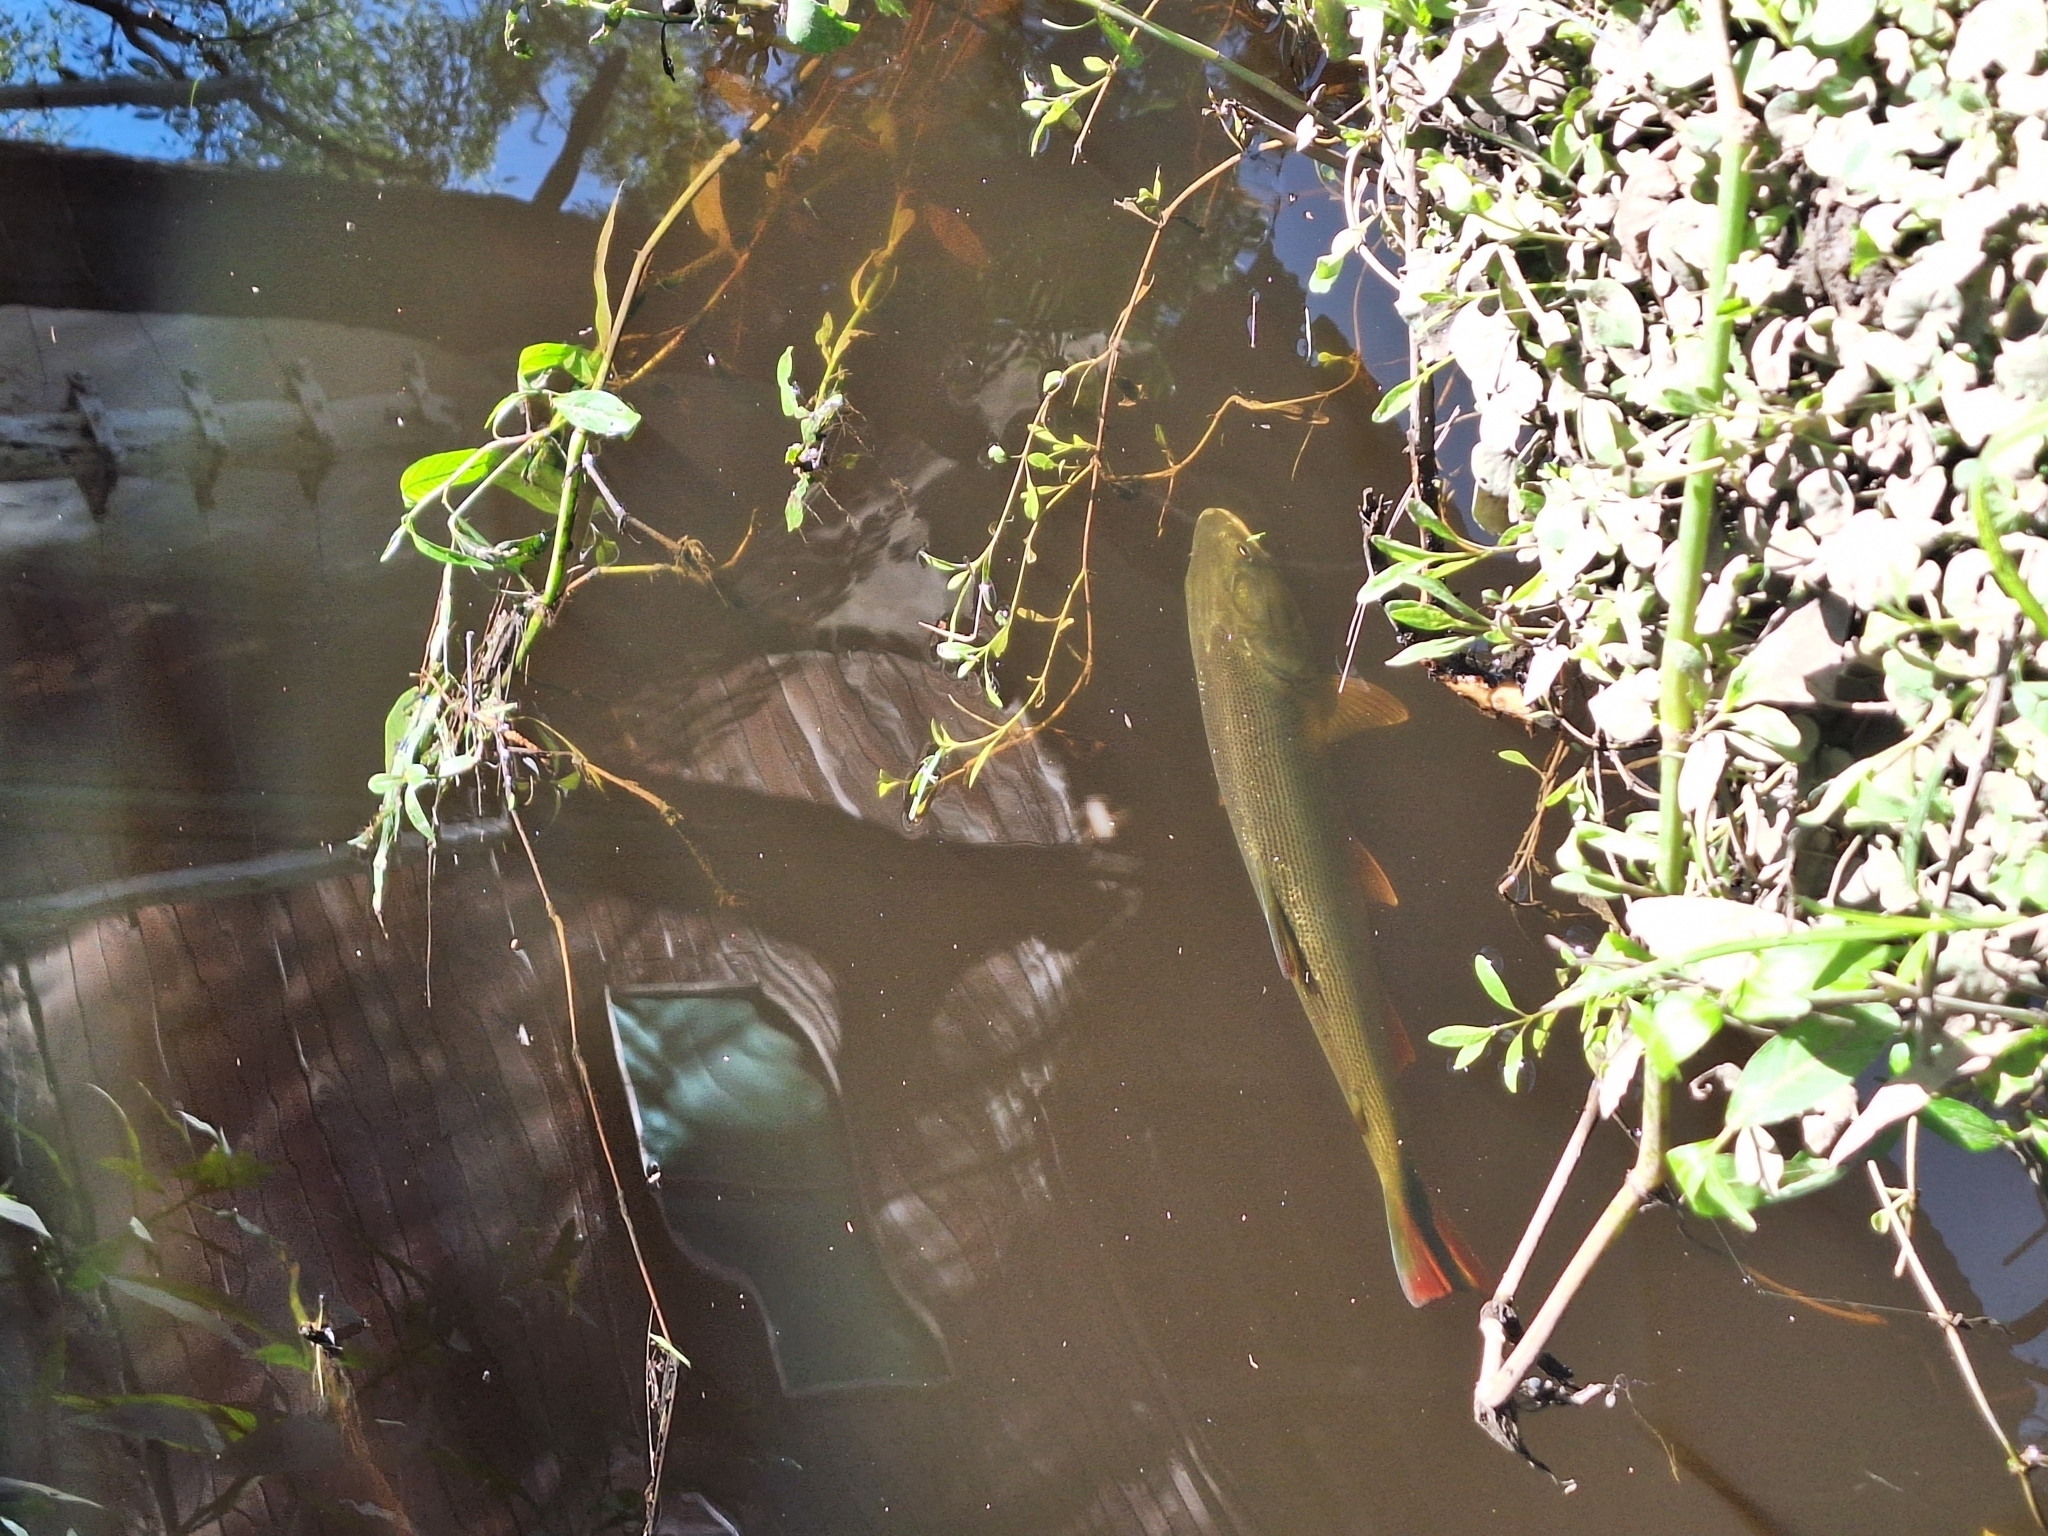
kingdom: Animalia
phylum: Chordata
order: Characiformes
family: Bryconidae
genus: Salminus
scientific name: Salminus brasiliensis
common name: Dorado
